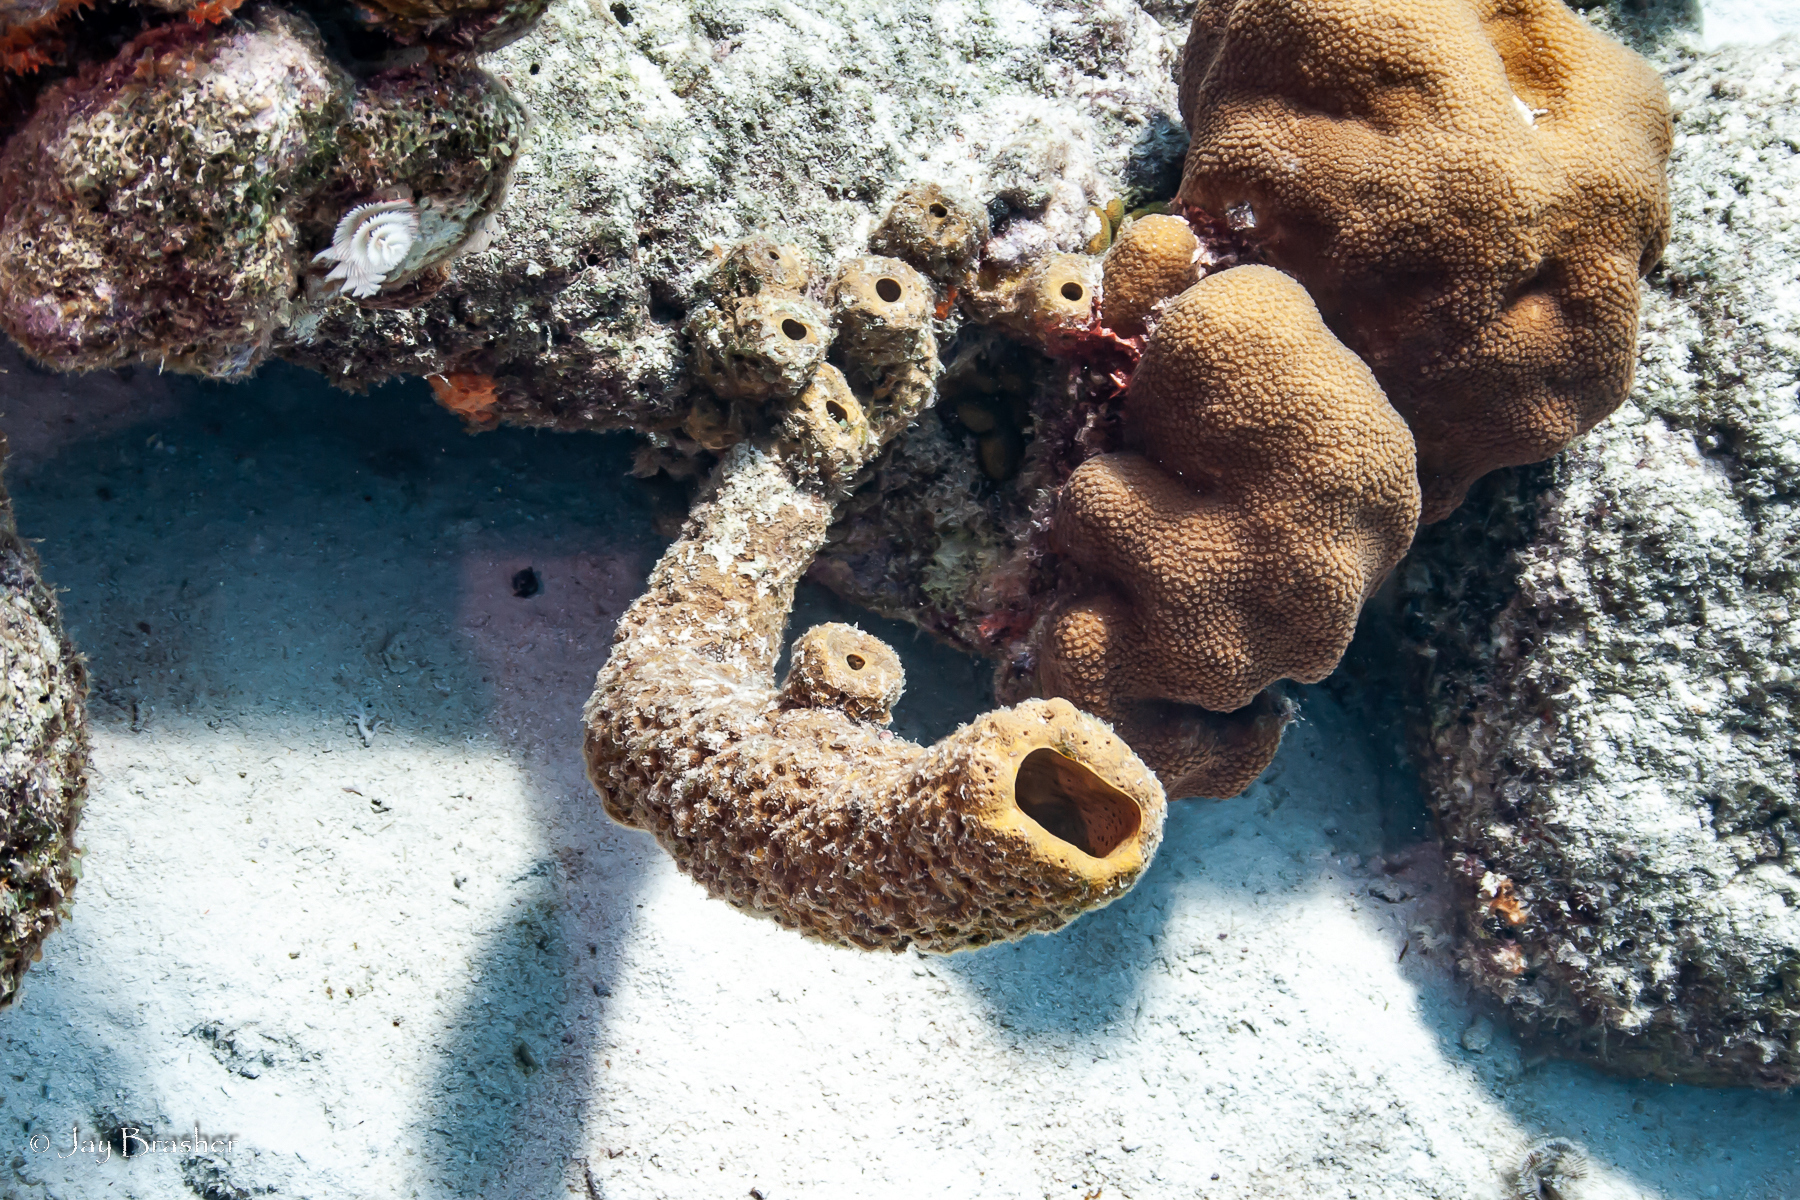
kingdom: Animalia
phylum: Porifera
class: Demospongiae
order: Verongiida
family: Aplysinidae
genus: Aplysina
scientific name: Aplysina archeri
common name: Stove-pipe sponge
